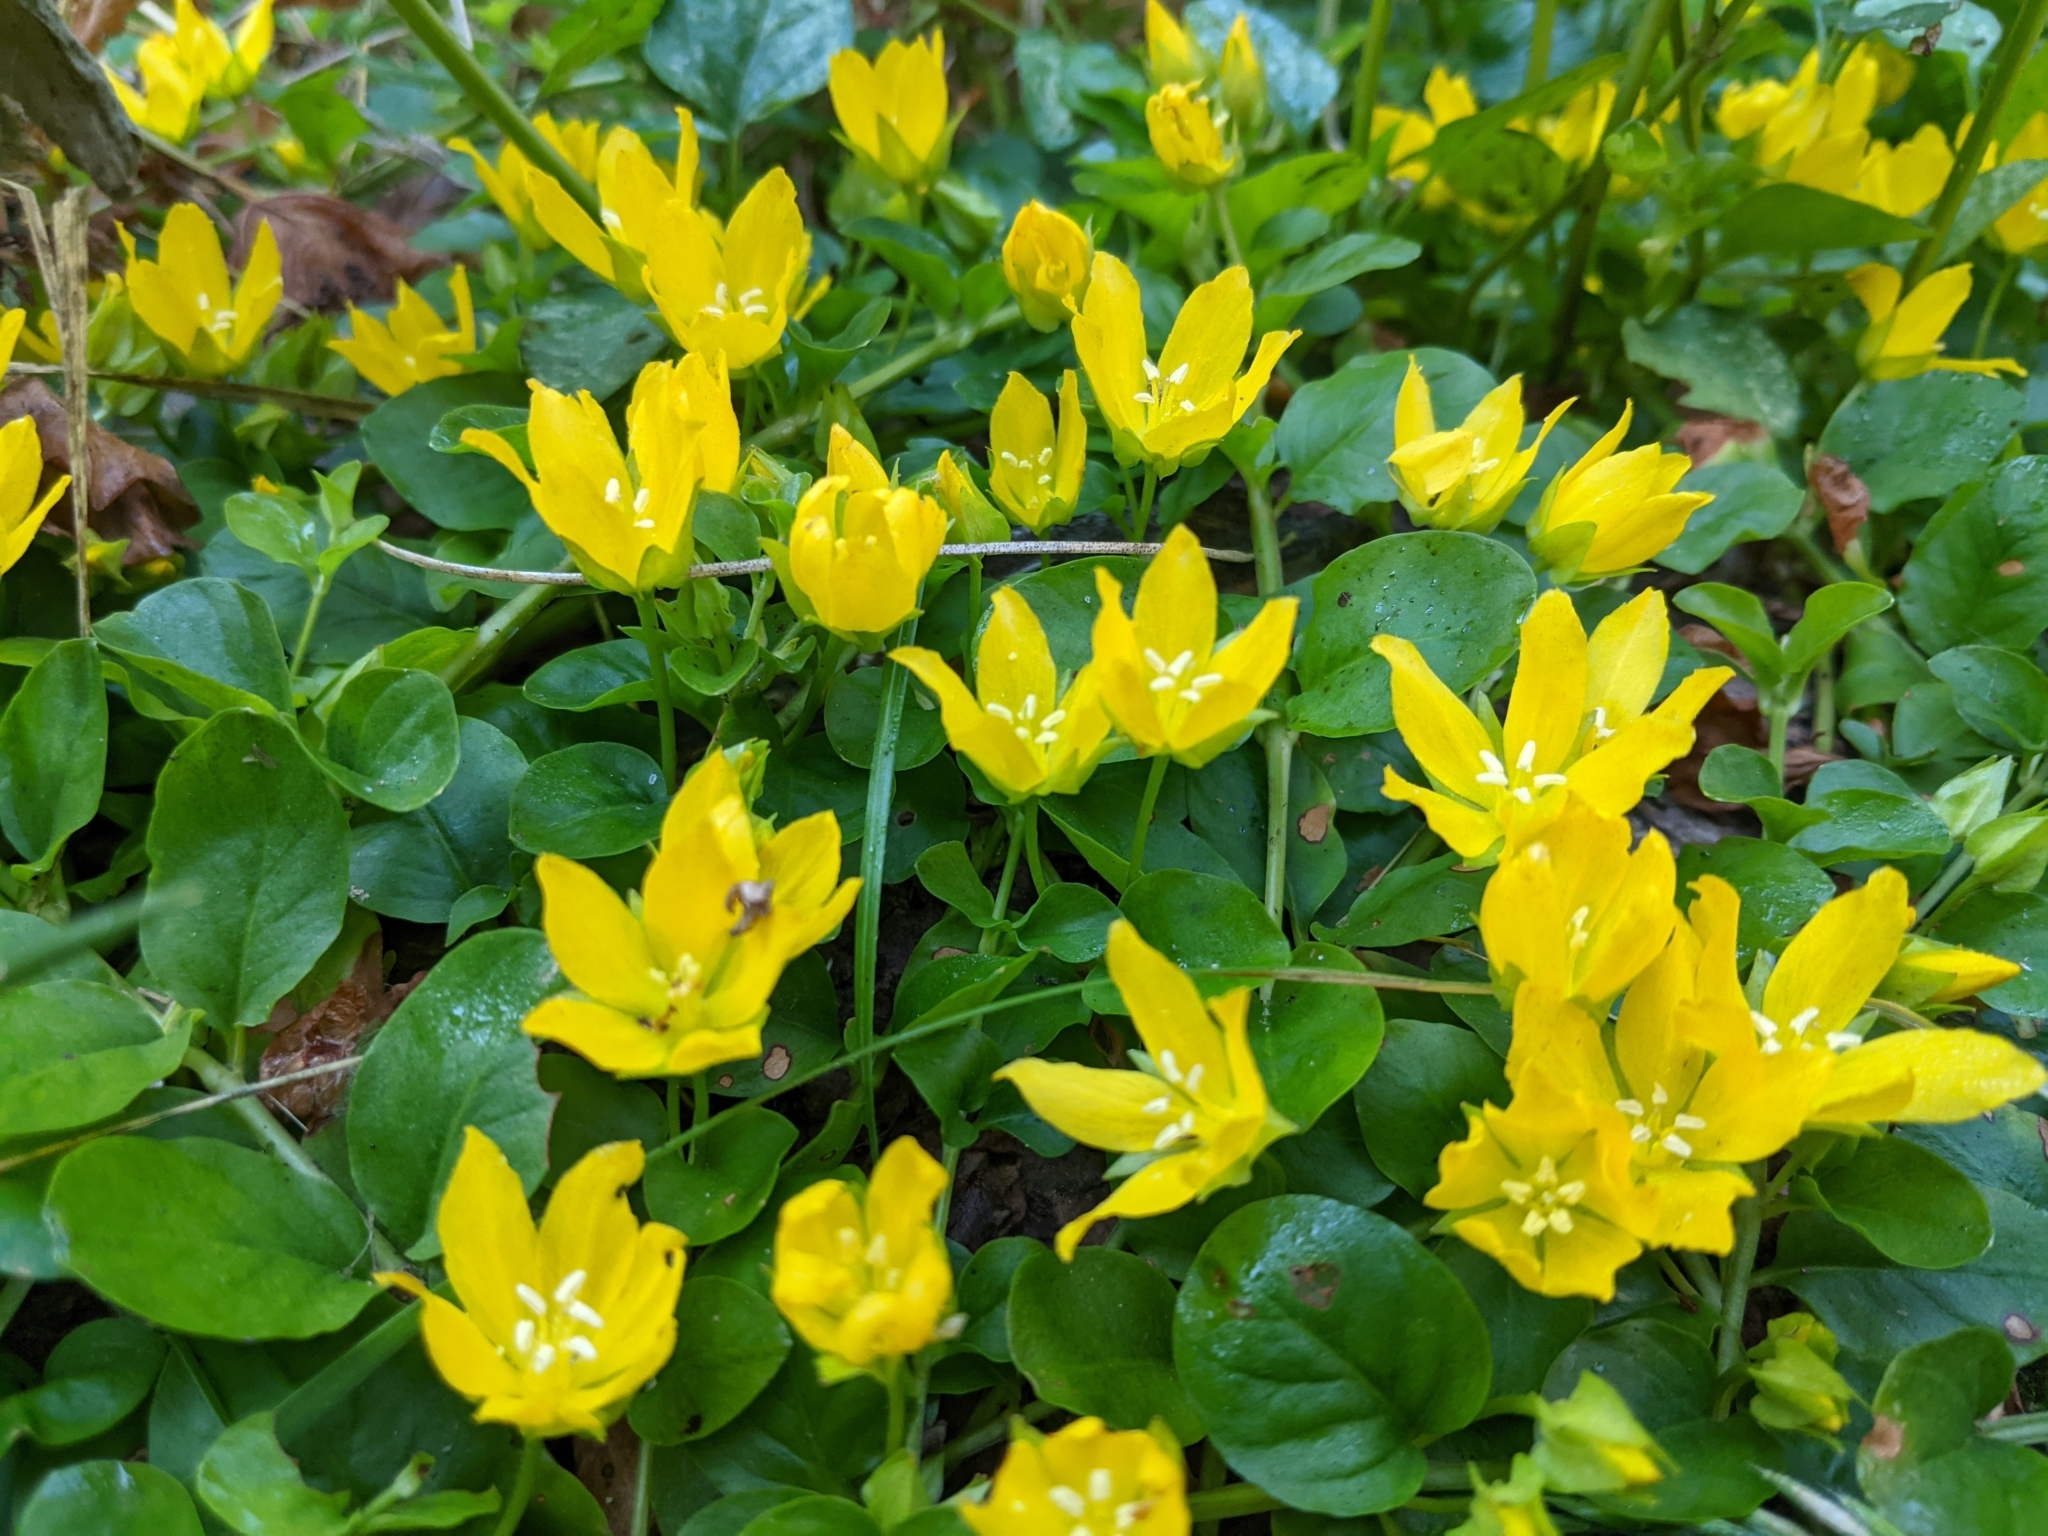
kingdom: Plantae
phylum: Tracheophyta
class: Magnoliopsida
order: Ericales
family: Primulaceae
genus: Lysimachia
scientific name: Lysimachia nummularia
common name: Moneywort
